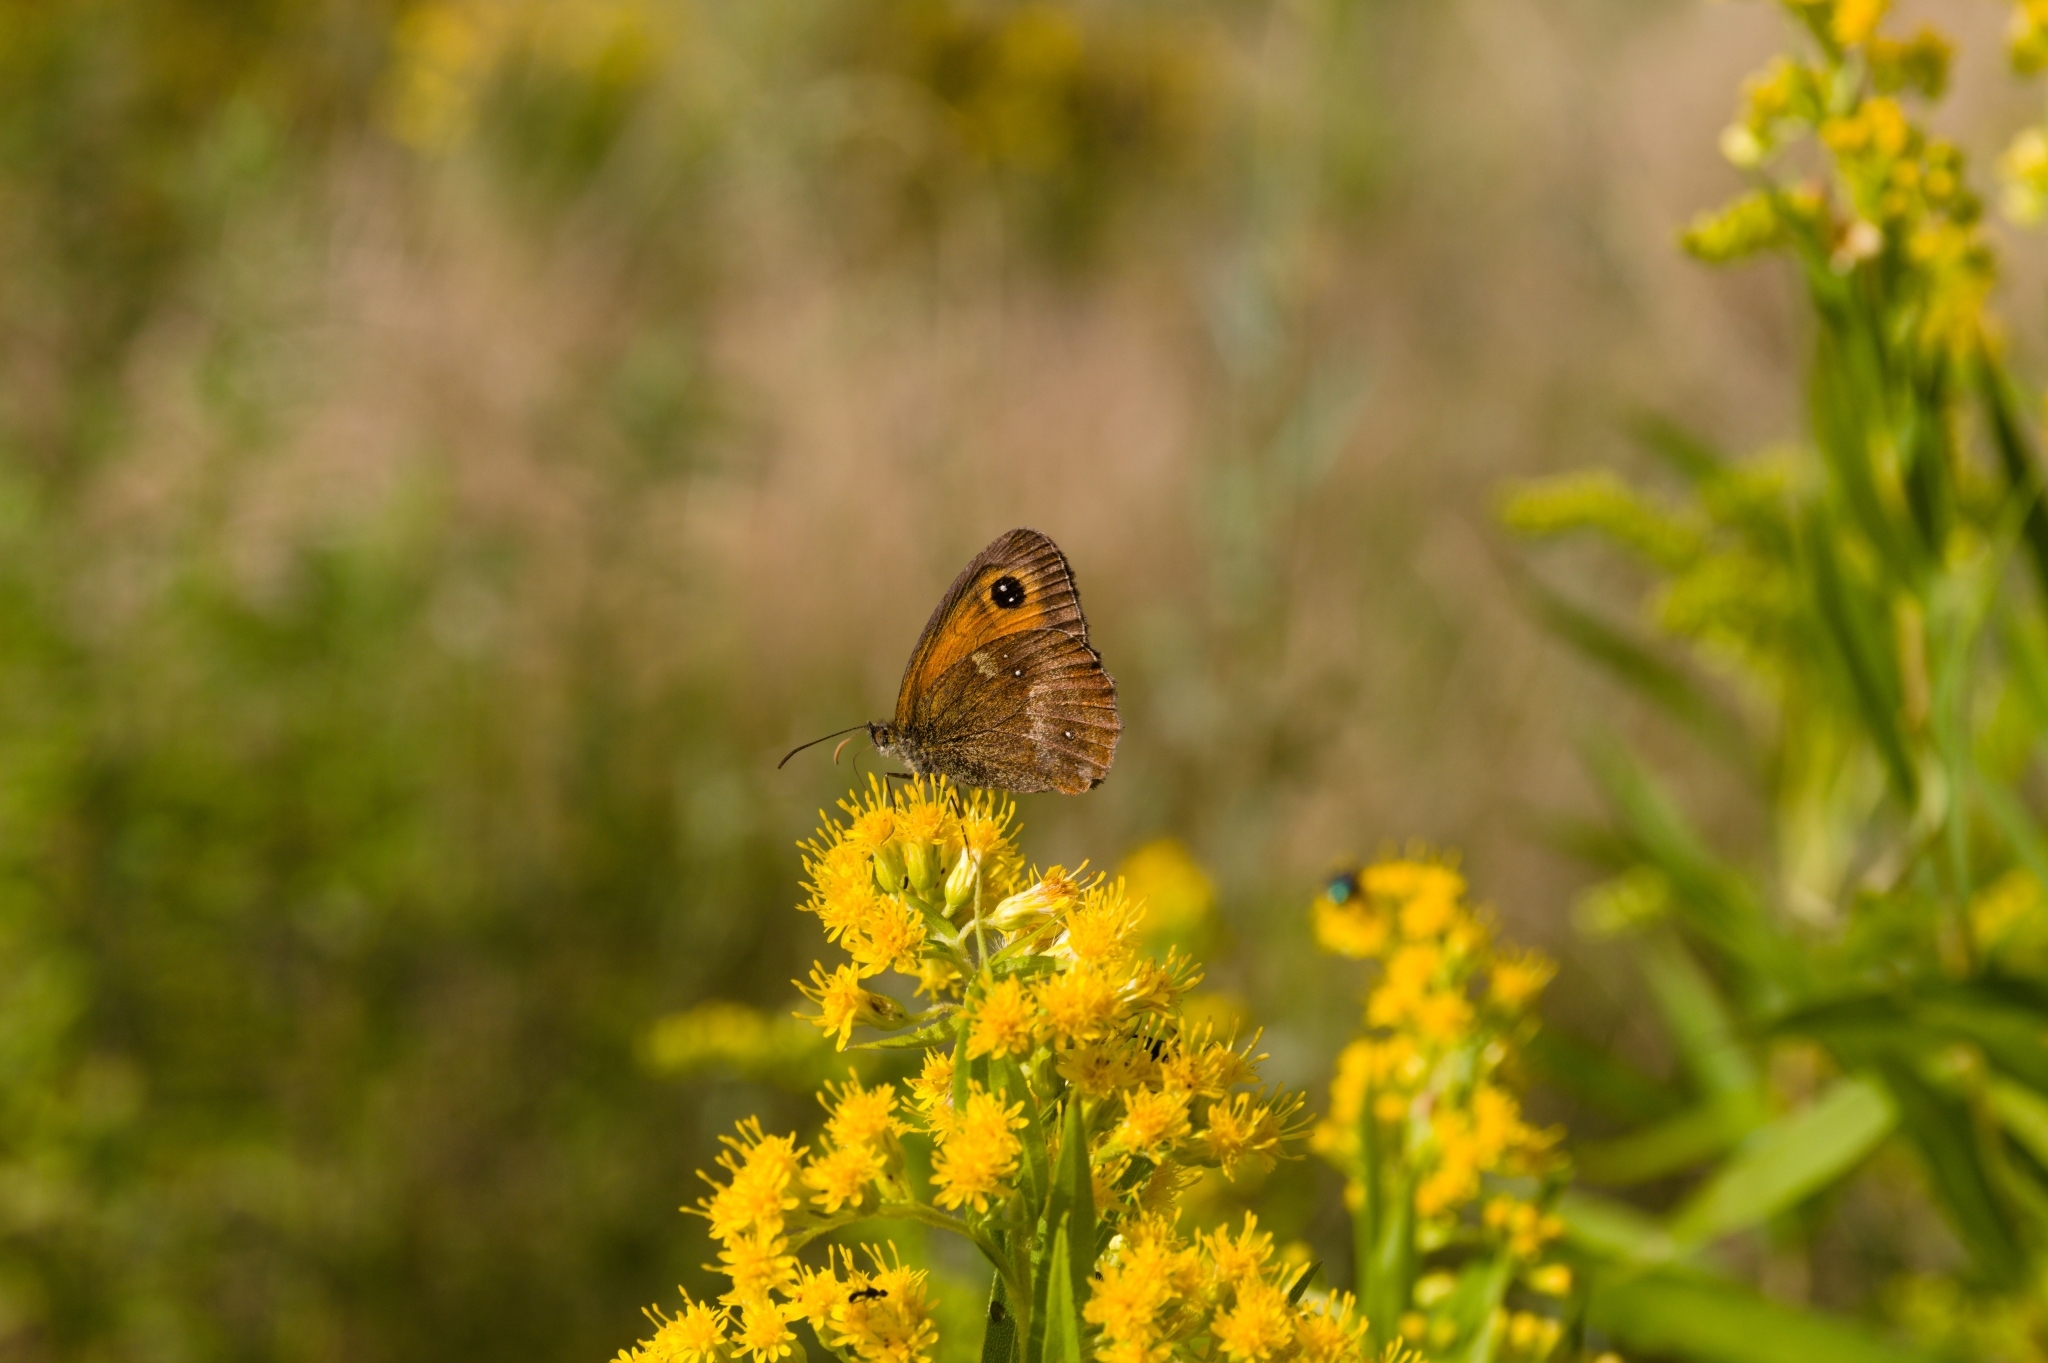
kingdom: Animalia
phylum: Arthropoda
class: Insecta
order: Lepidoptera
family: Nymphalidae
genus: Pyronia
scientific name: Pyronia tithonus
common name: Gatekeeper
